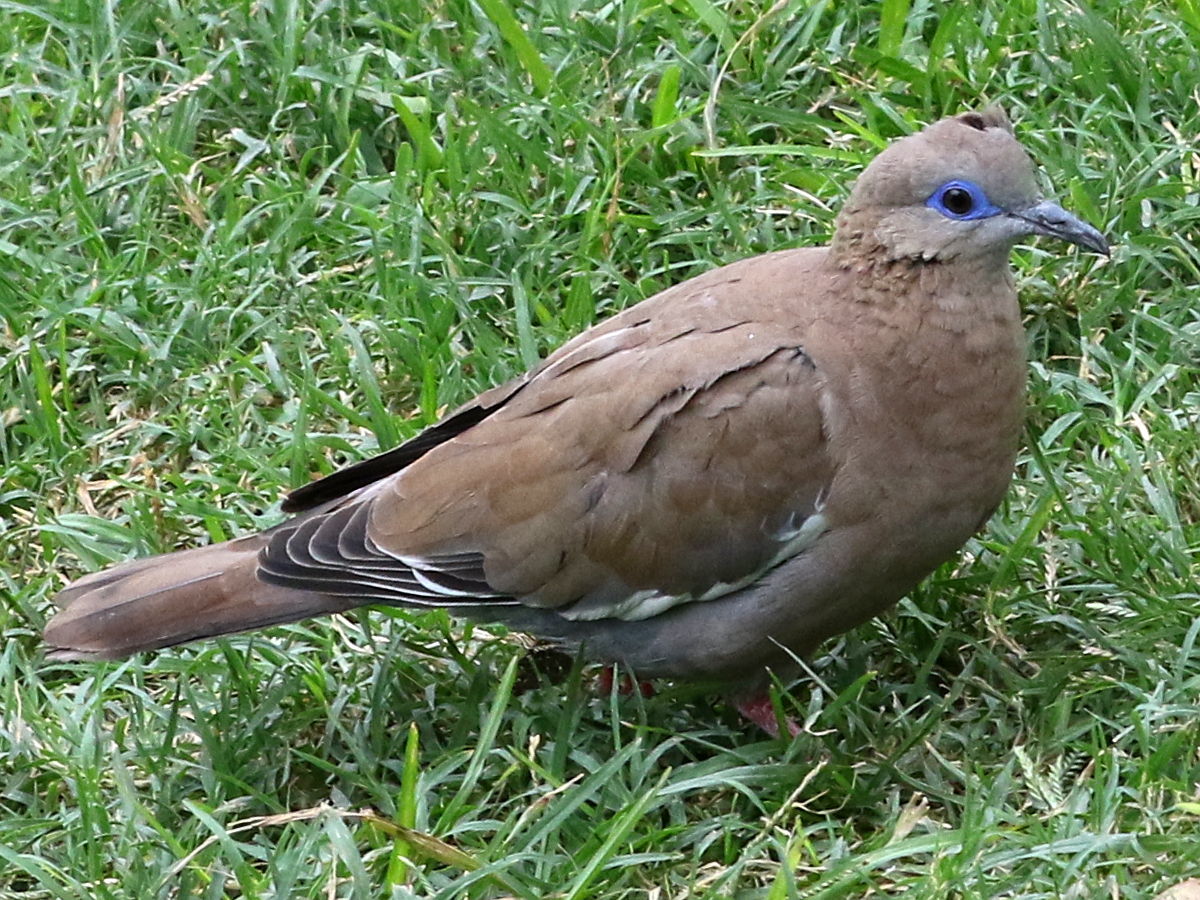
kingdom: Animalia
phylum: Chordata
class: Aves
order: Columbiformes
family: Columbidae
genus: Zenaida
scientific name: Zenaida meloda
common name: West peruvian dove
